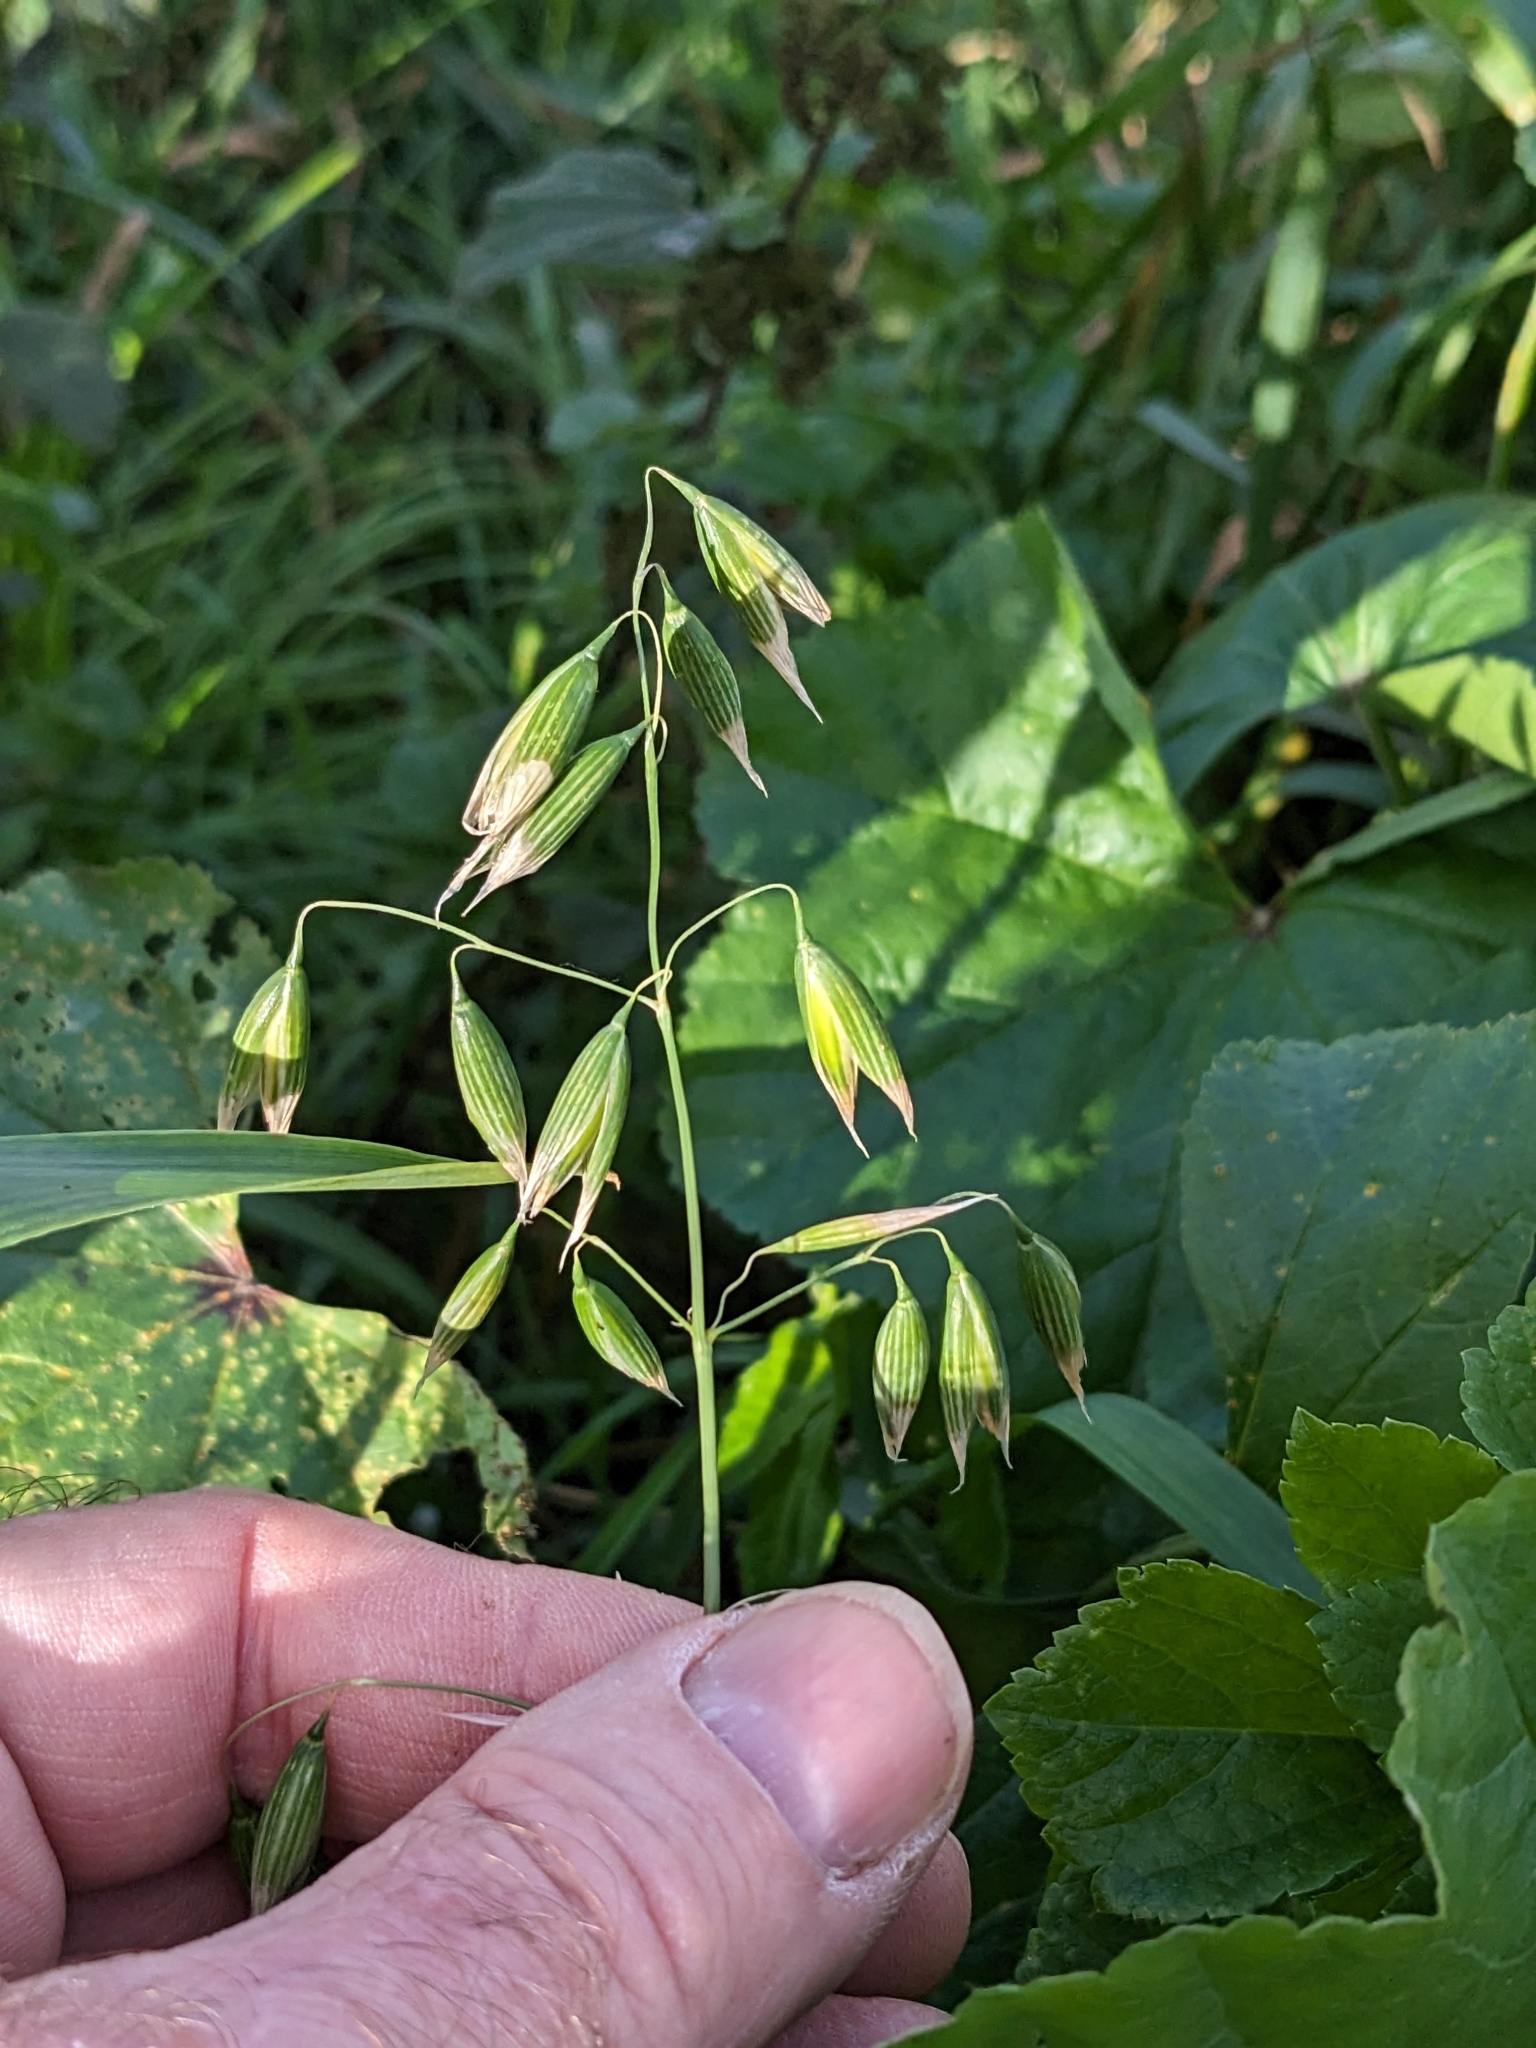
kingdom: Plantae
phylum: Tracheophyta
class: Liliopsida
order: Poales
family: Poaceae
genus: Avena
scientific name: Avena sativa
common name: Oat
